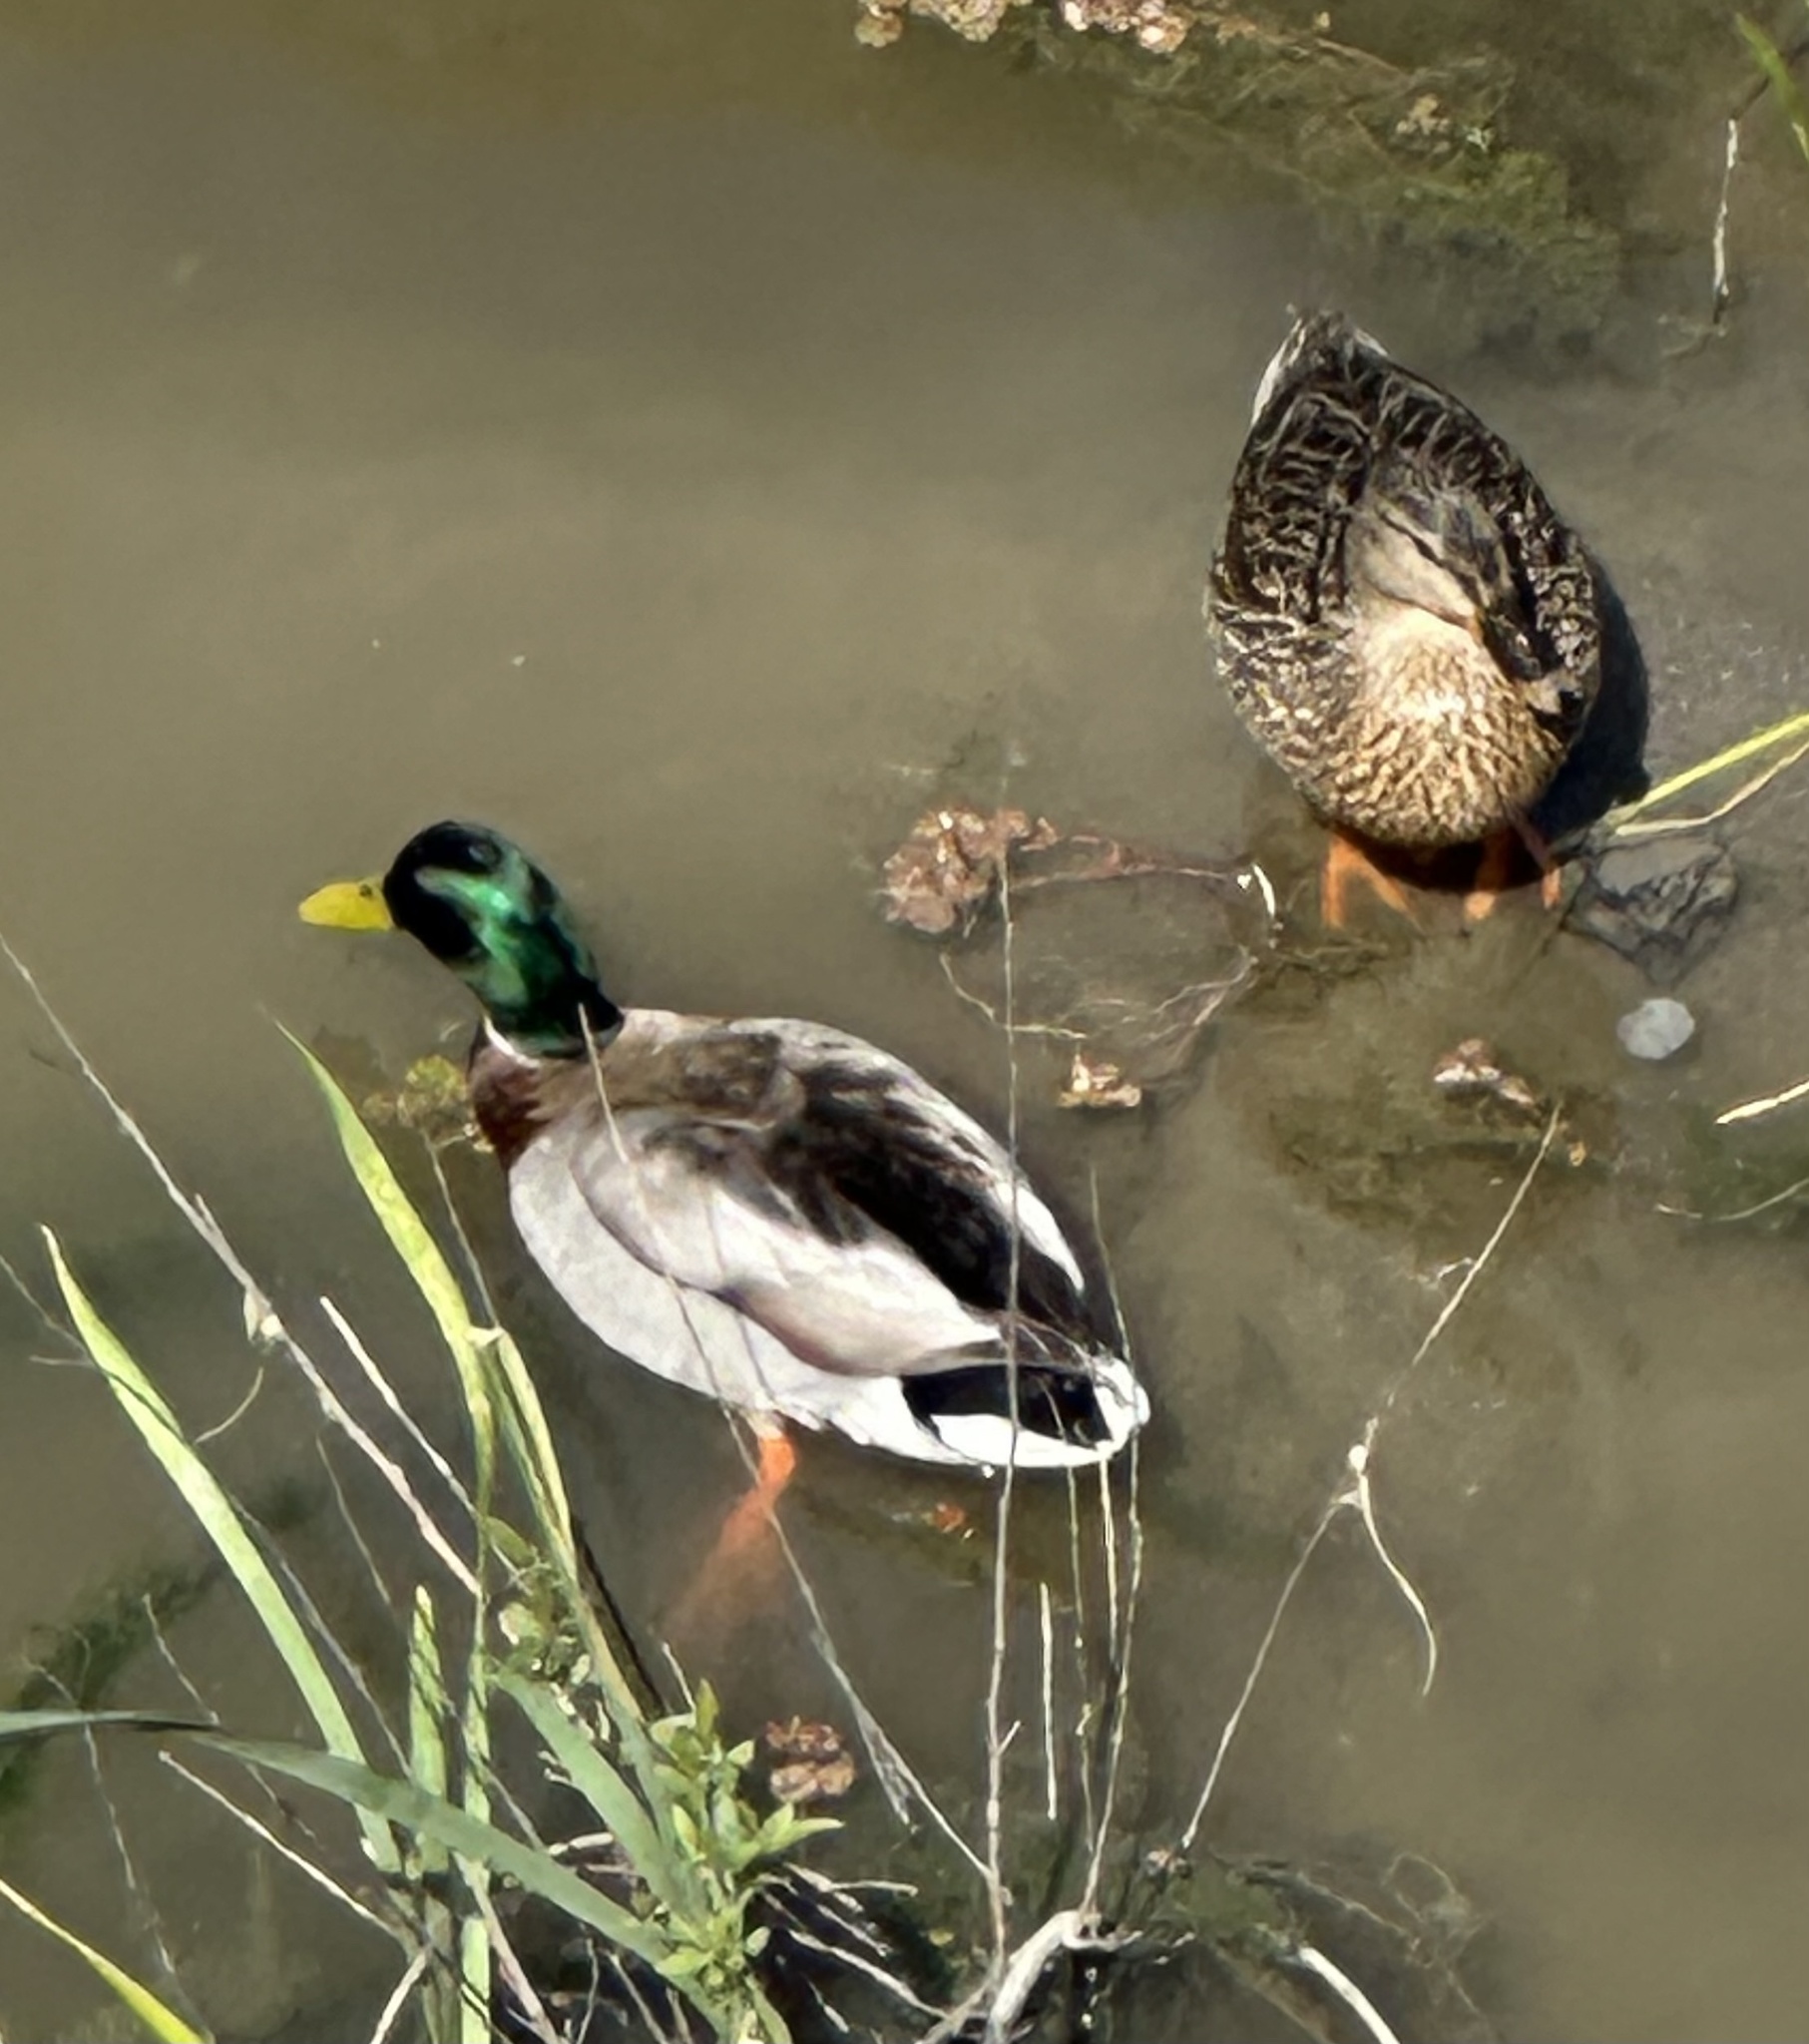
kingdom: Animalia
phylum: Chordata
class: Aves
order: Anseriformes
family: Anatidae
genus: Anas
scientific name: Anas platyrhynchos
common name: Mallard
